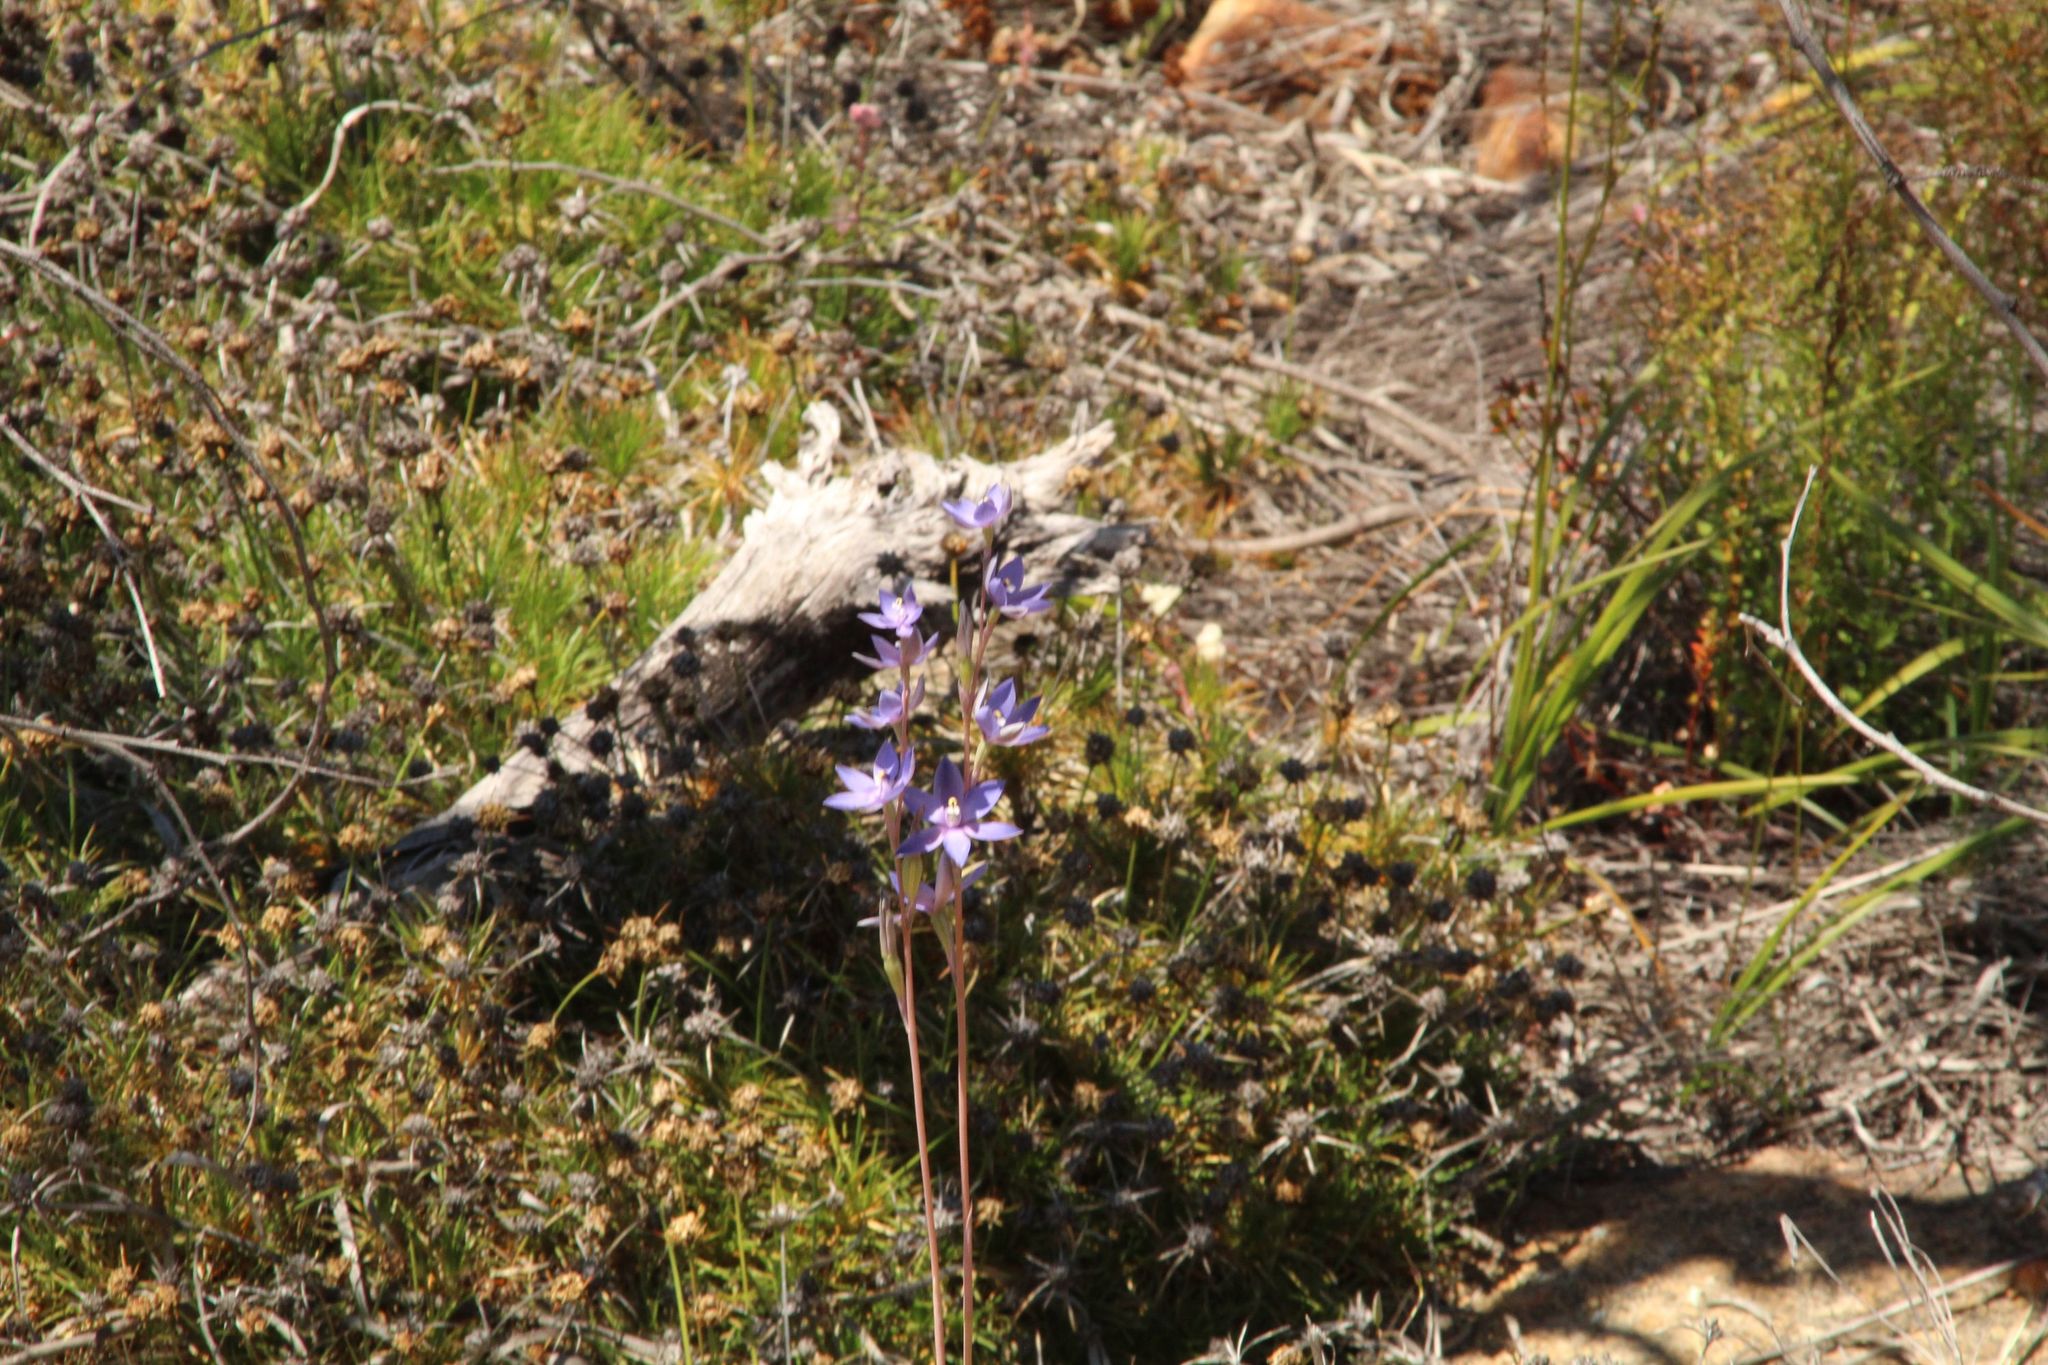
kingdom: Plantae
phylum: Tracheophyta
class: Liliopsida
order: Asparagales
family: Orchidaceae
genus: Thelymitra
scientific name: Thelymitra petrophila
